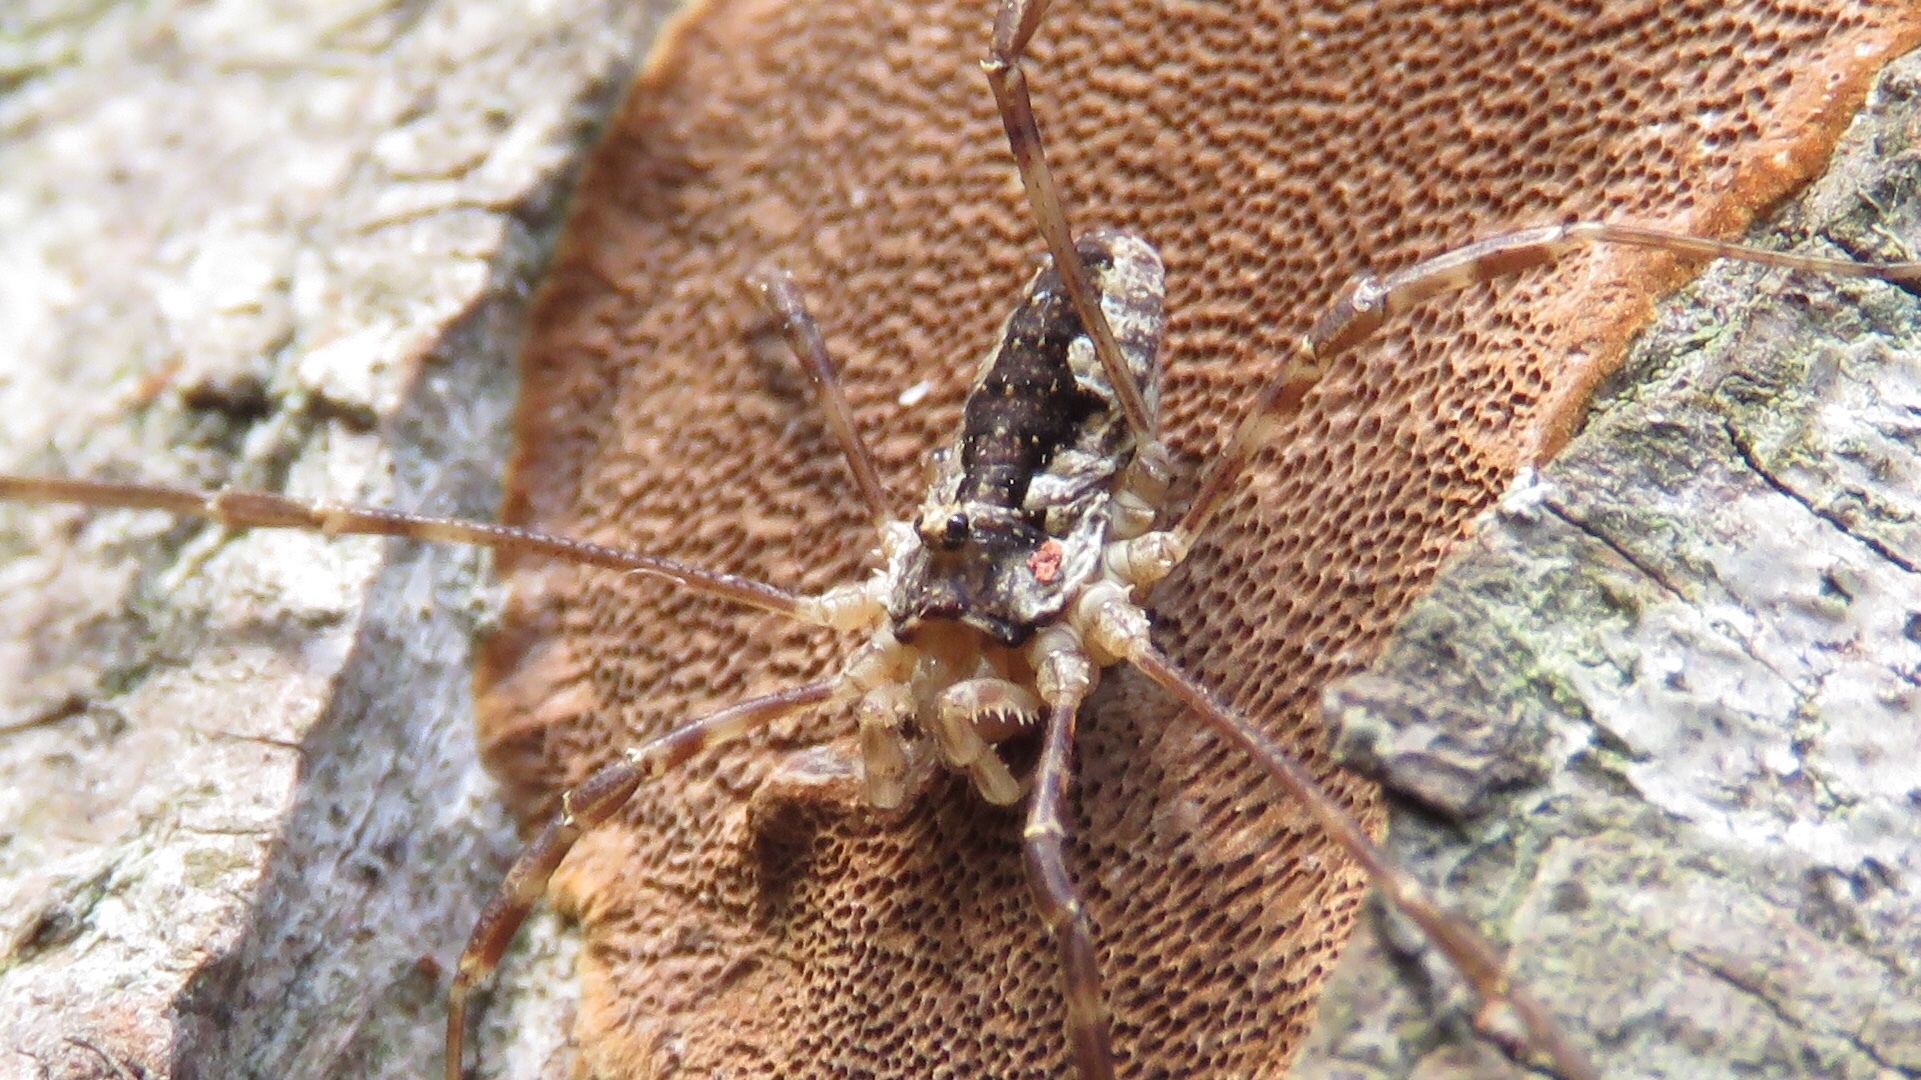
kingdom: Animalia
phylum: Arthropoda
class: Arachnida
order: Opiliones
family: Phalangiidae
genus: Odiellus
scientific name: Odiellus pictus
